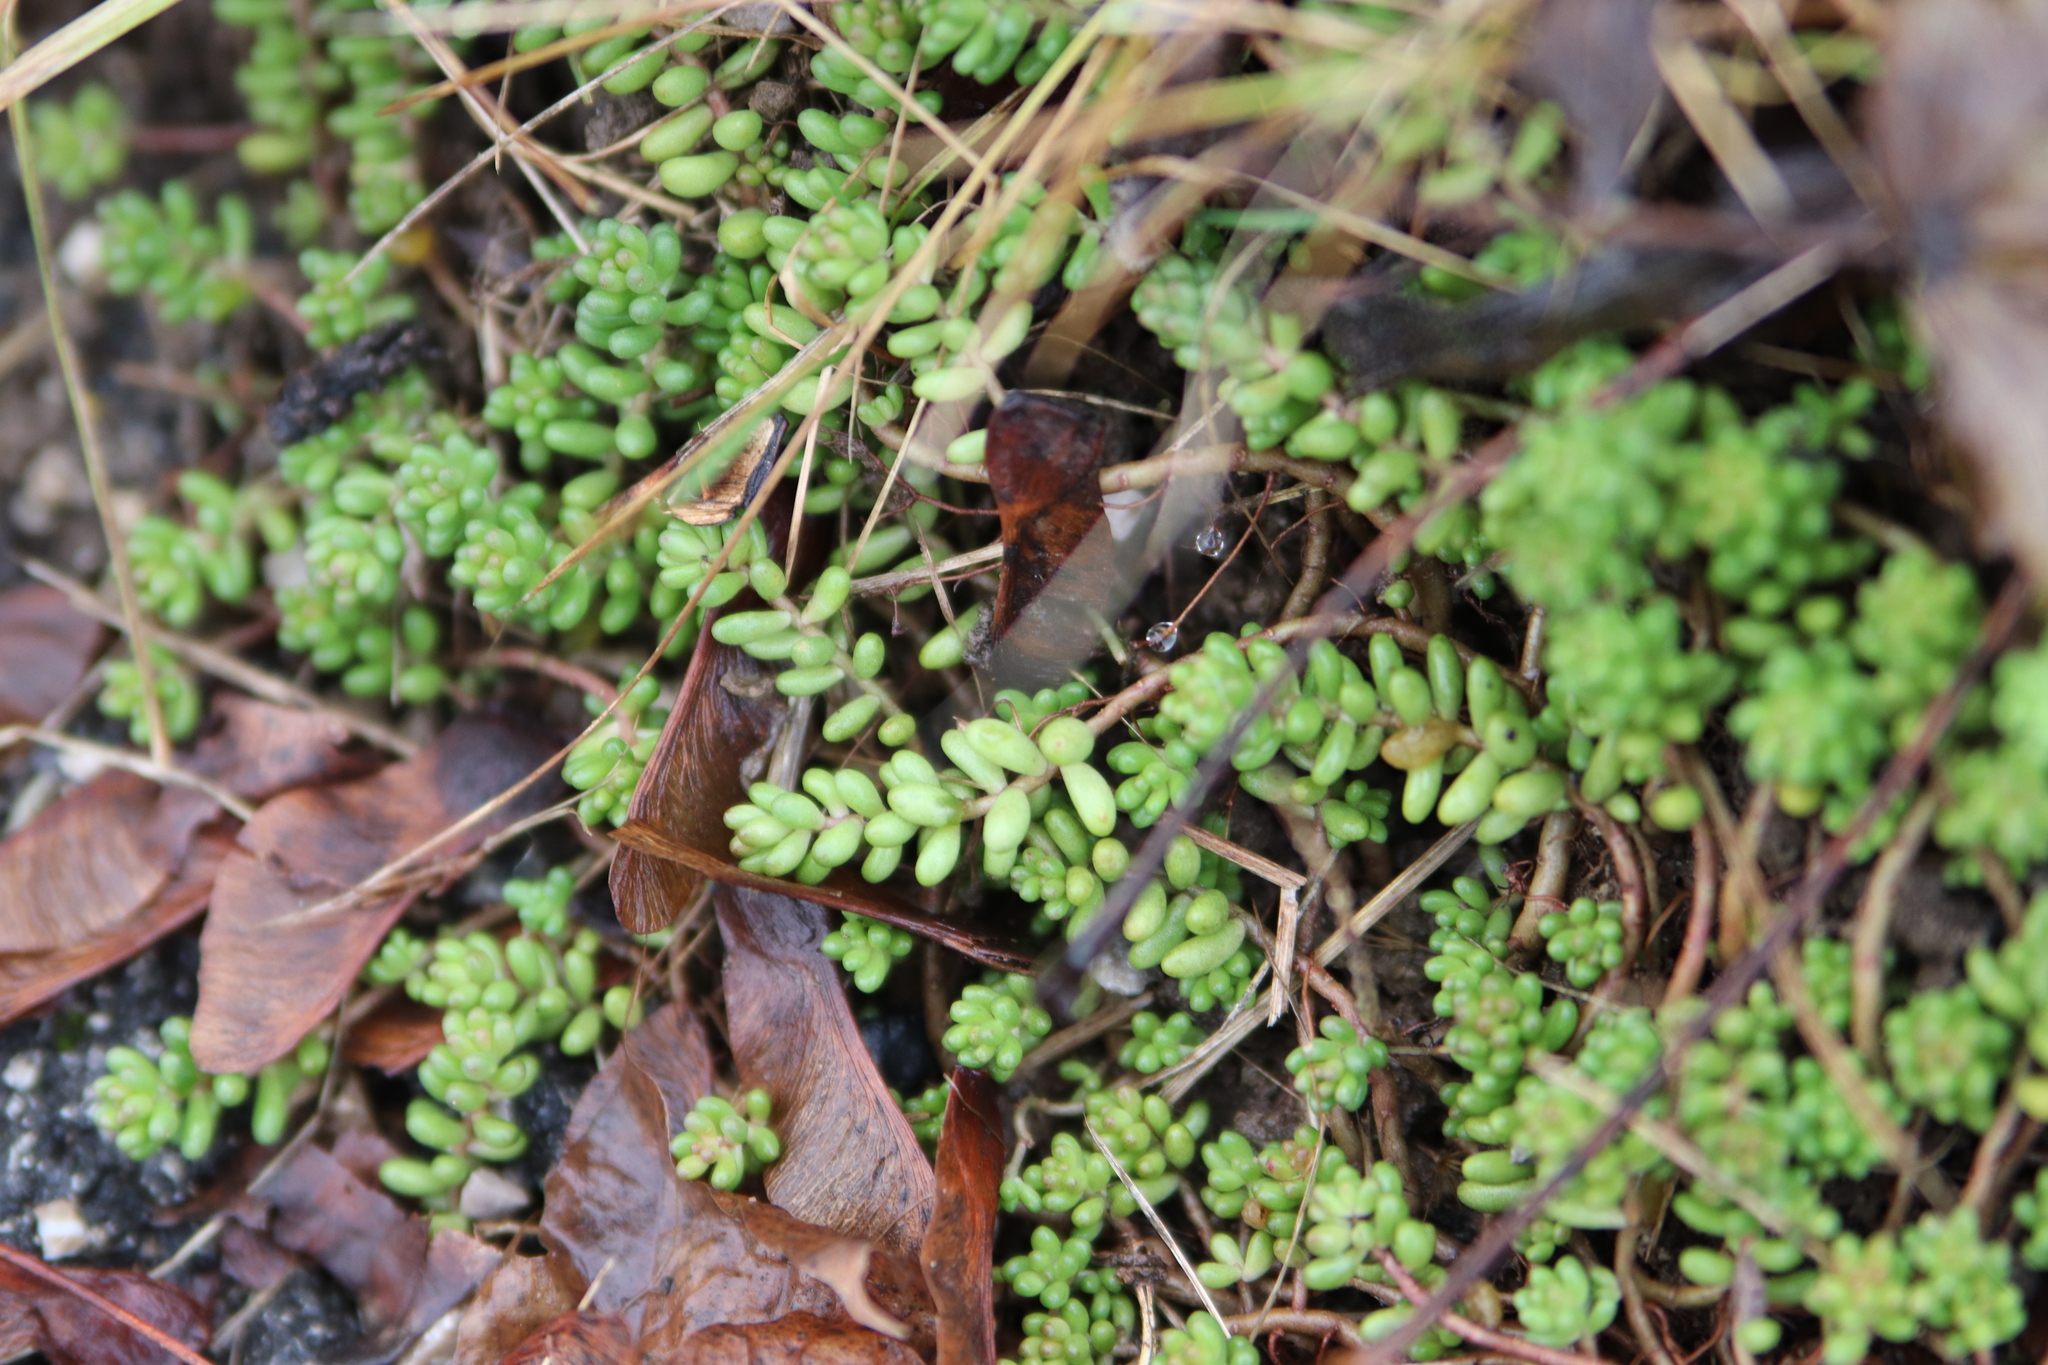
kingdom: Plantae
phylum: Tracheophyta
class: Magnoliopsida
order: Saxifragales
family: Crassulaceae
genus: Sedum
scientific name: Sedum album
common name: White stonecrop
